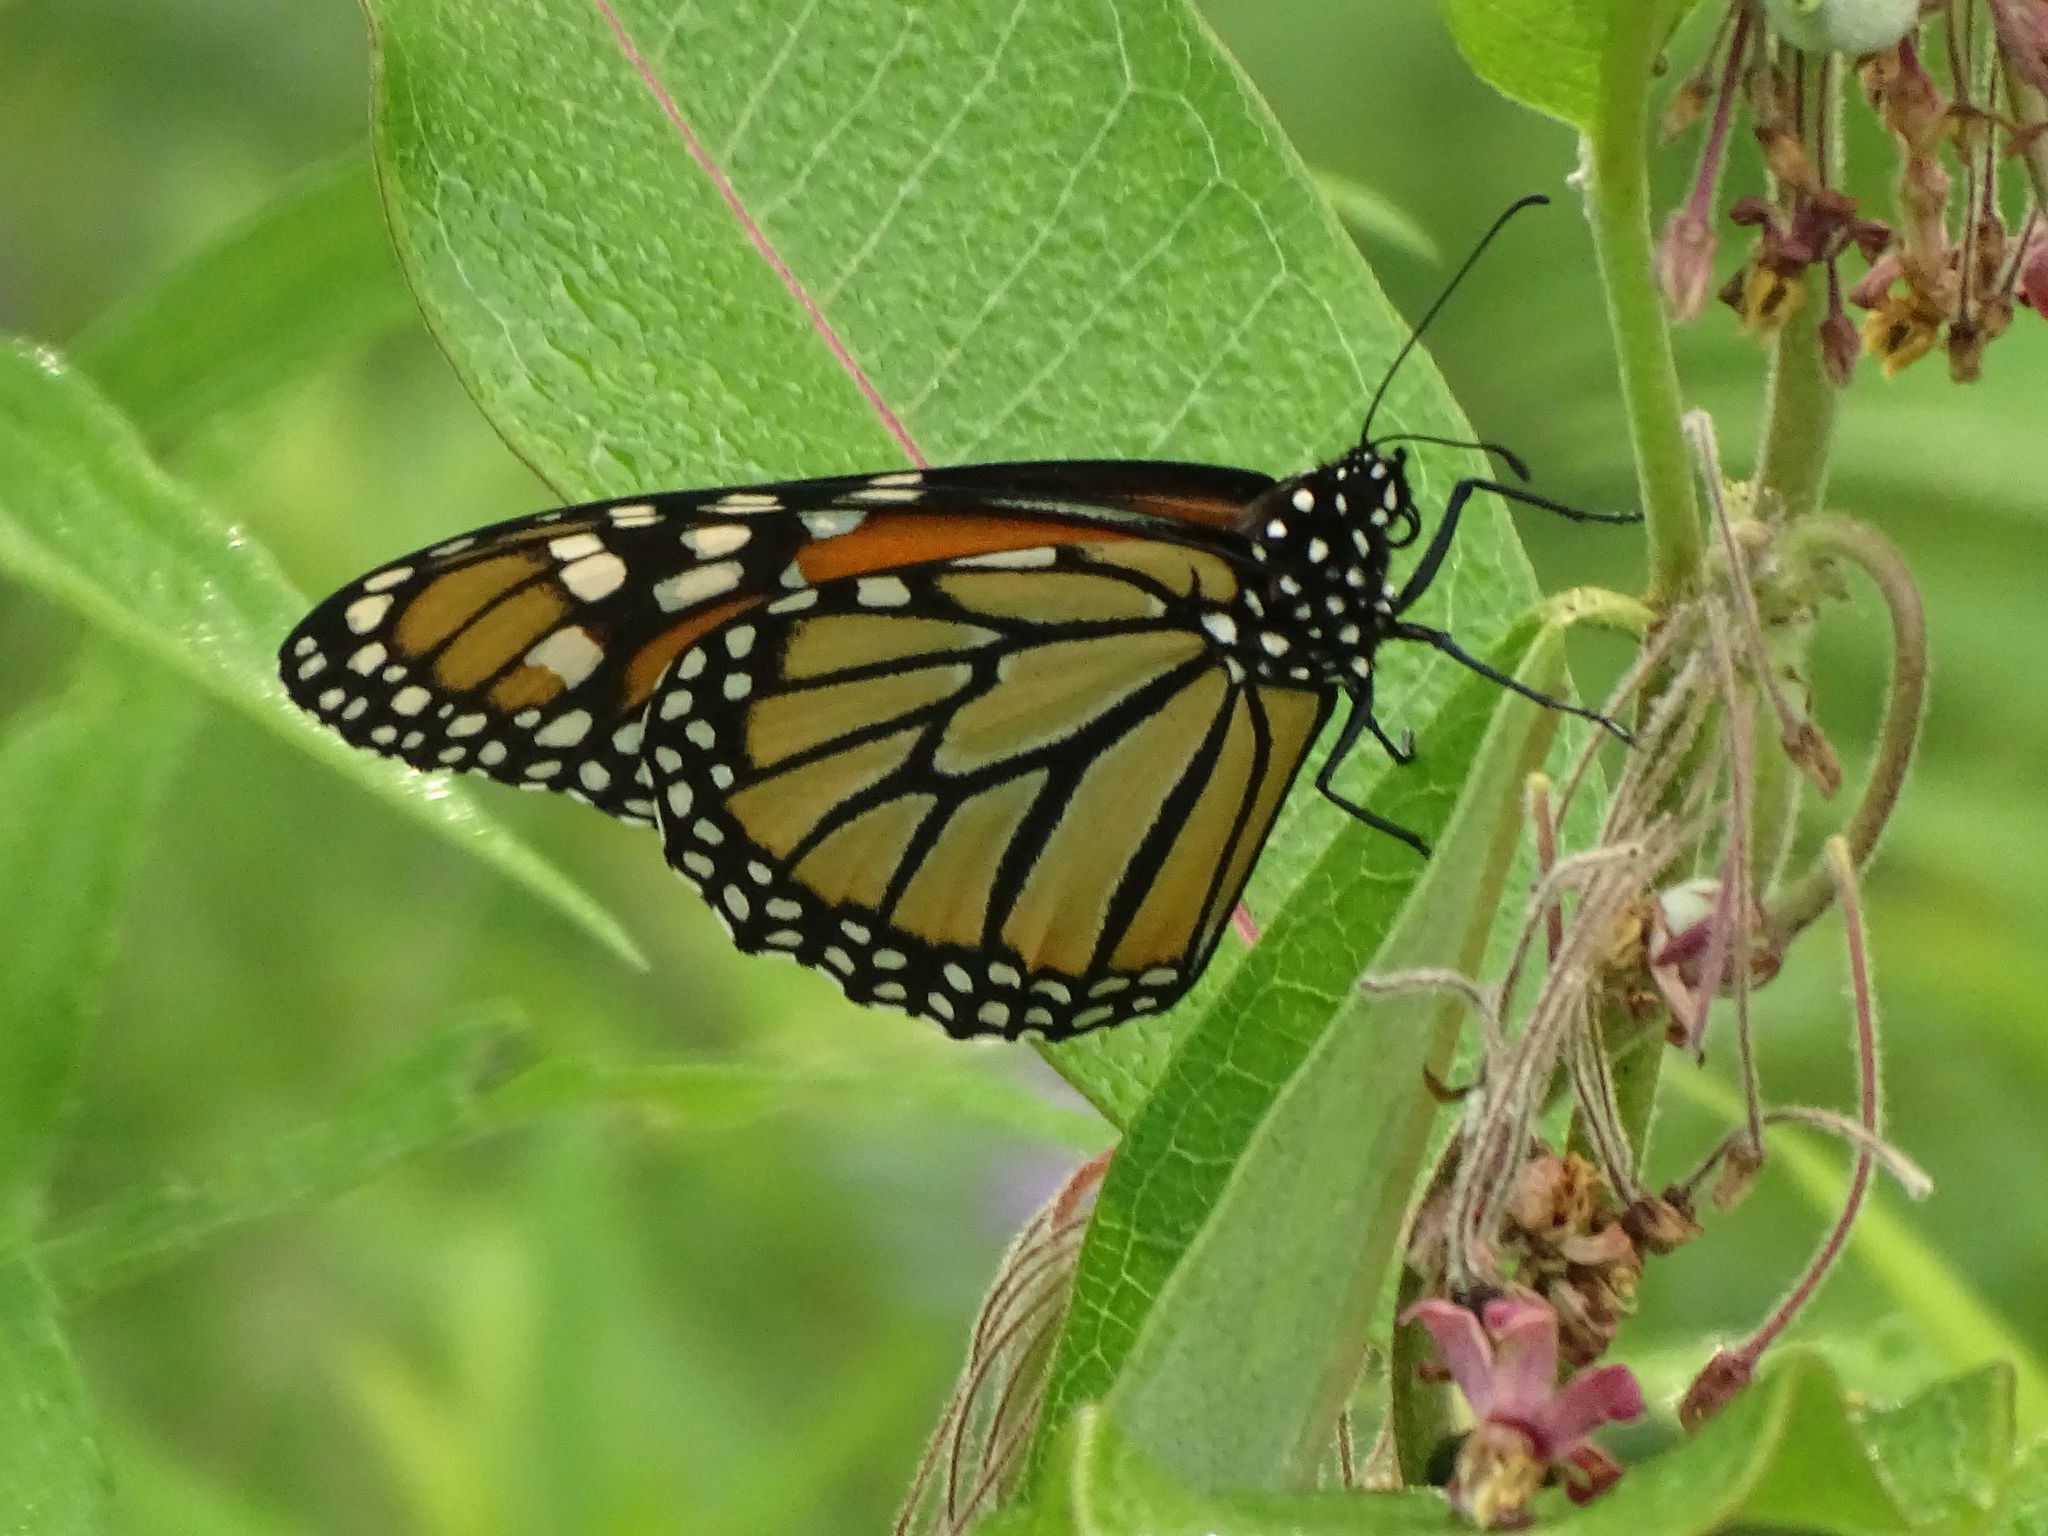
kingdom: Animalia
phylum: Arthropoda
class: Insecta
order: Lepidoptera
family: Nymphalidae
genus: Danaus
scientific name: Danaus plexippus
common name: Monarch
